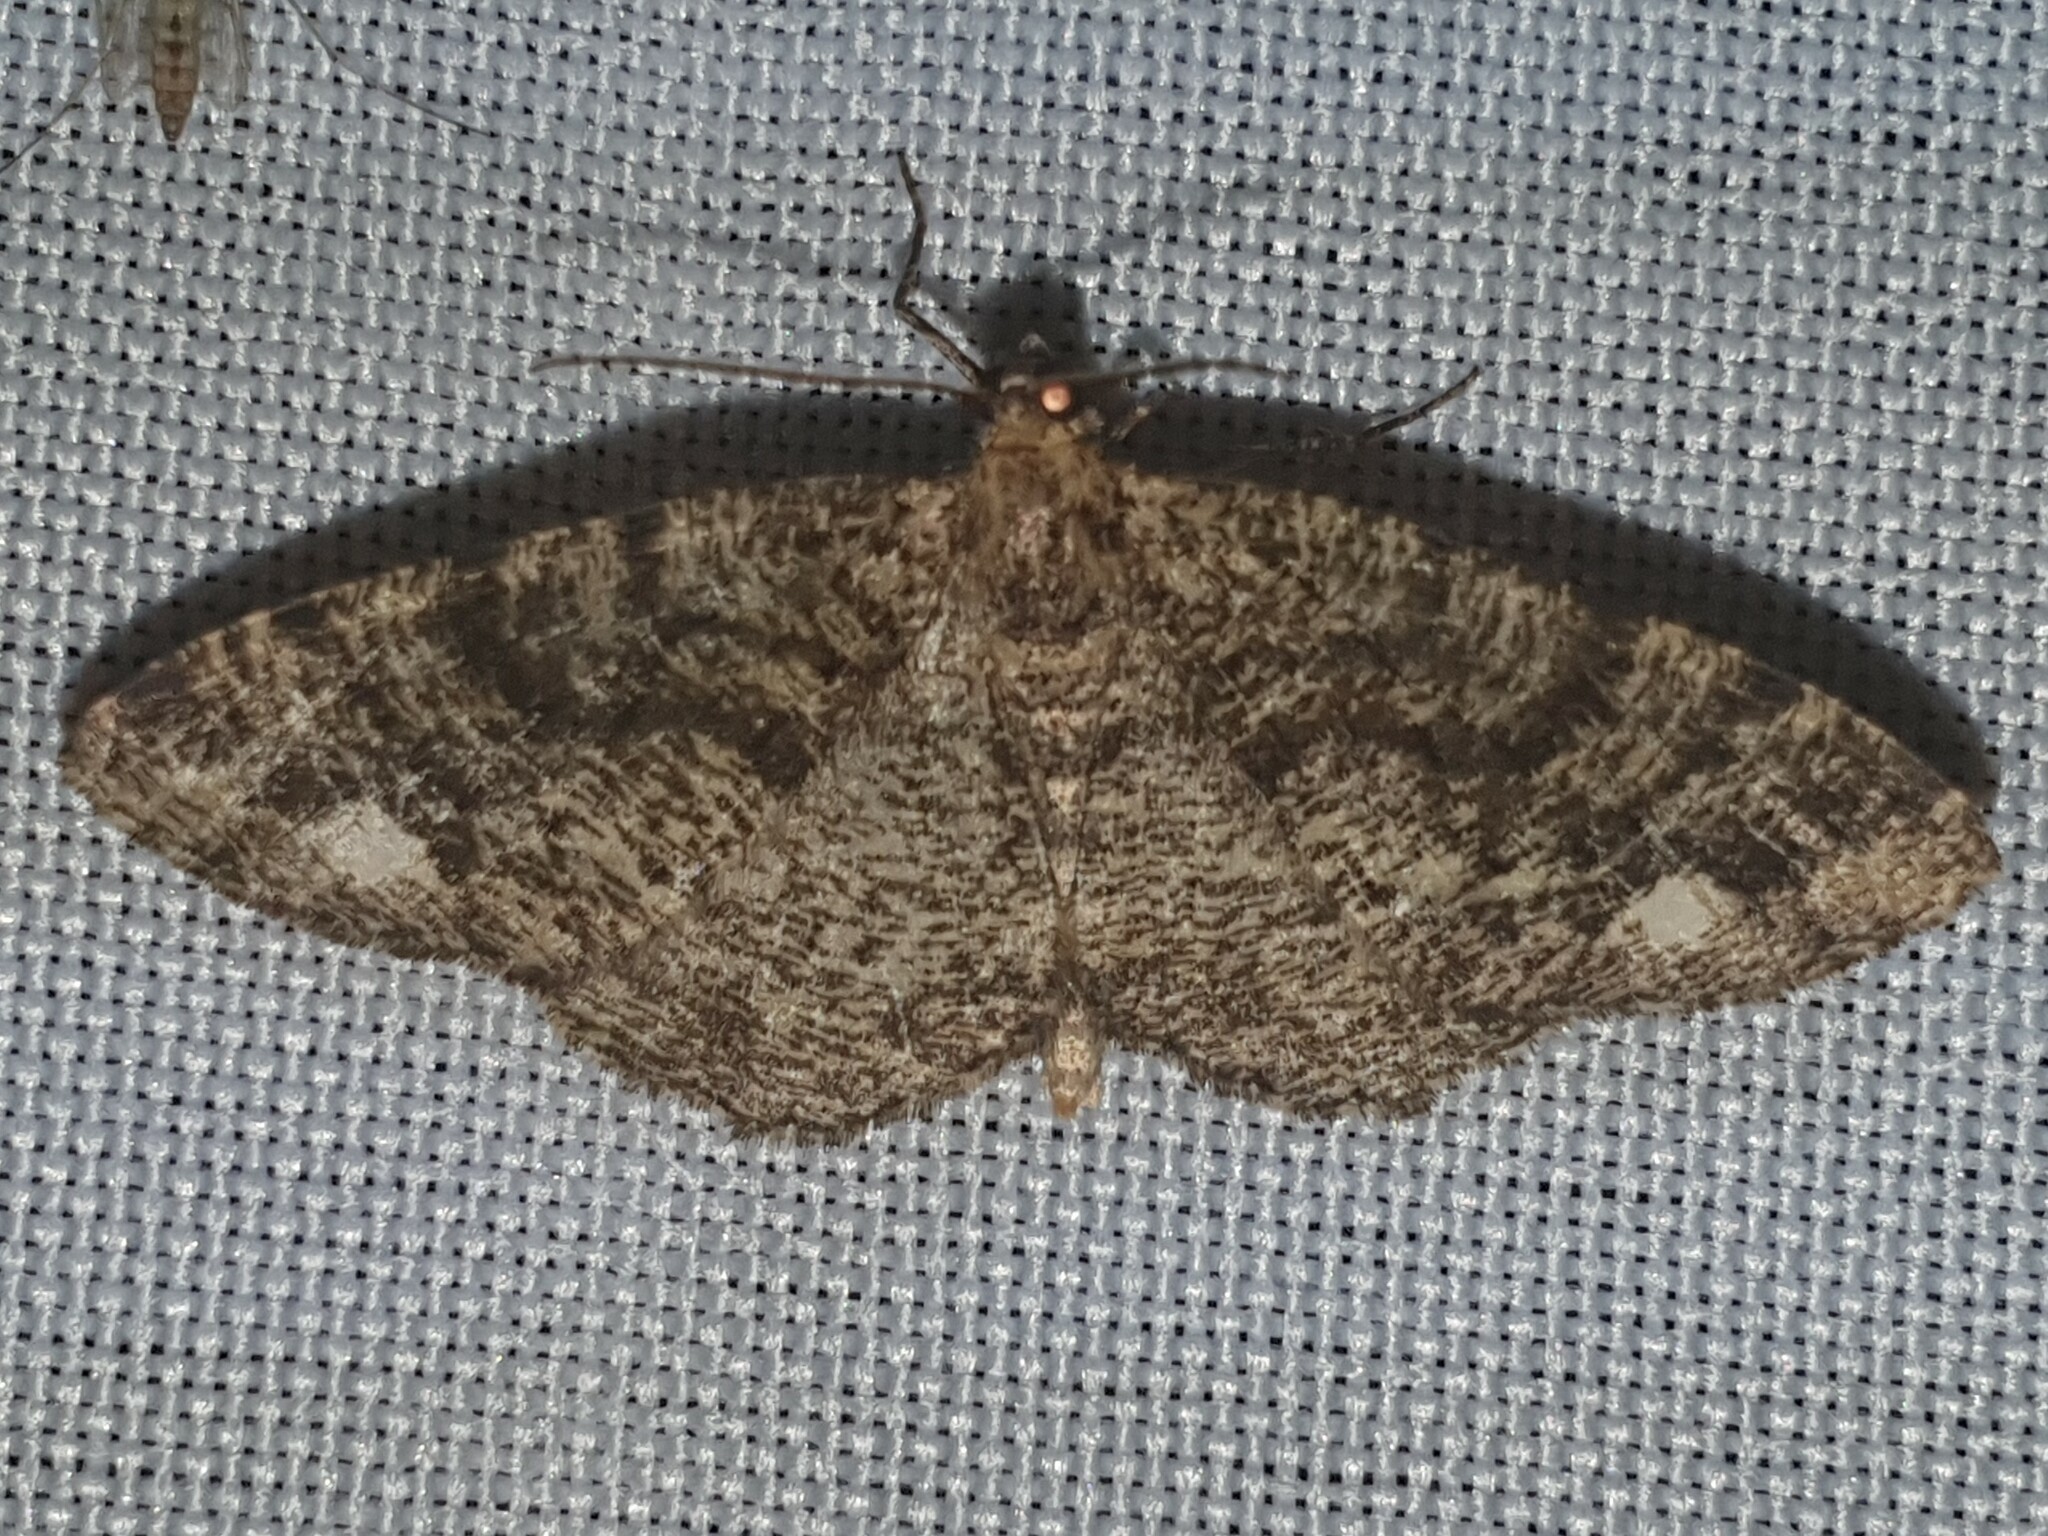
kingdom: Animalia
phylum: Arthropoda
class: Insecta
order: Lepidoptera
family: Geometridae
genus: Parectropis
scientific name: Parectropis similaria
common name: Brindled white-spot
